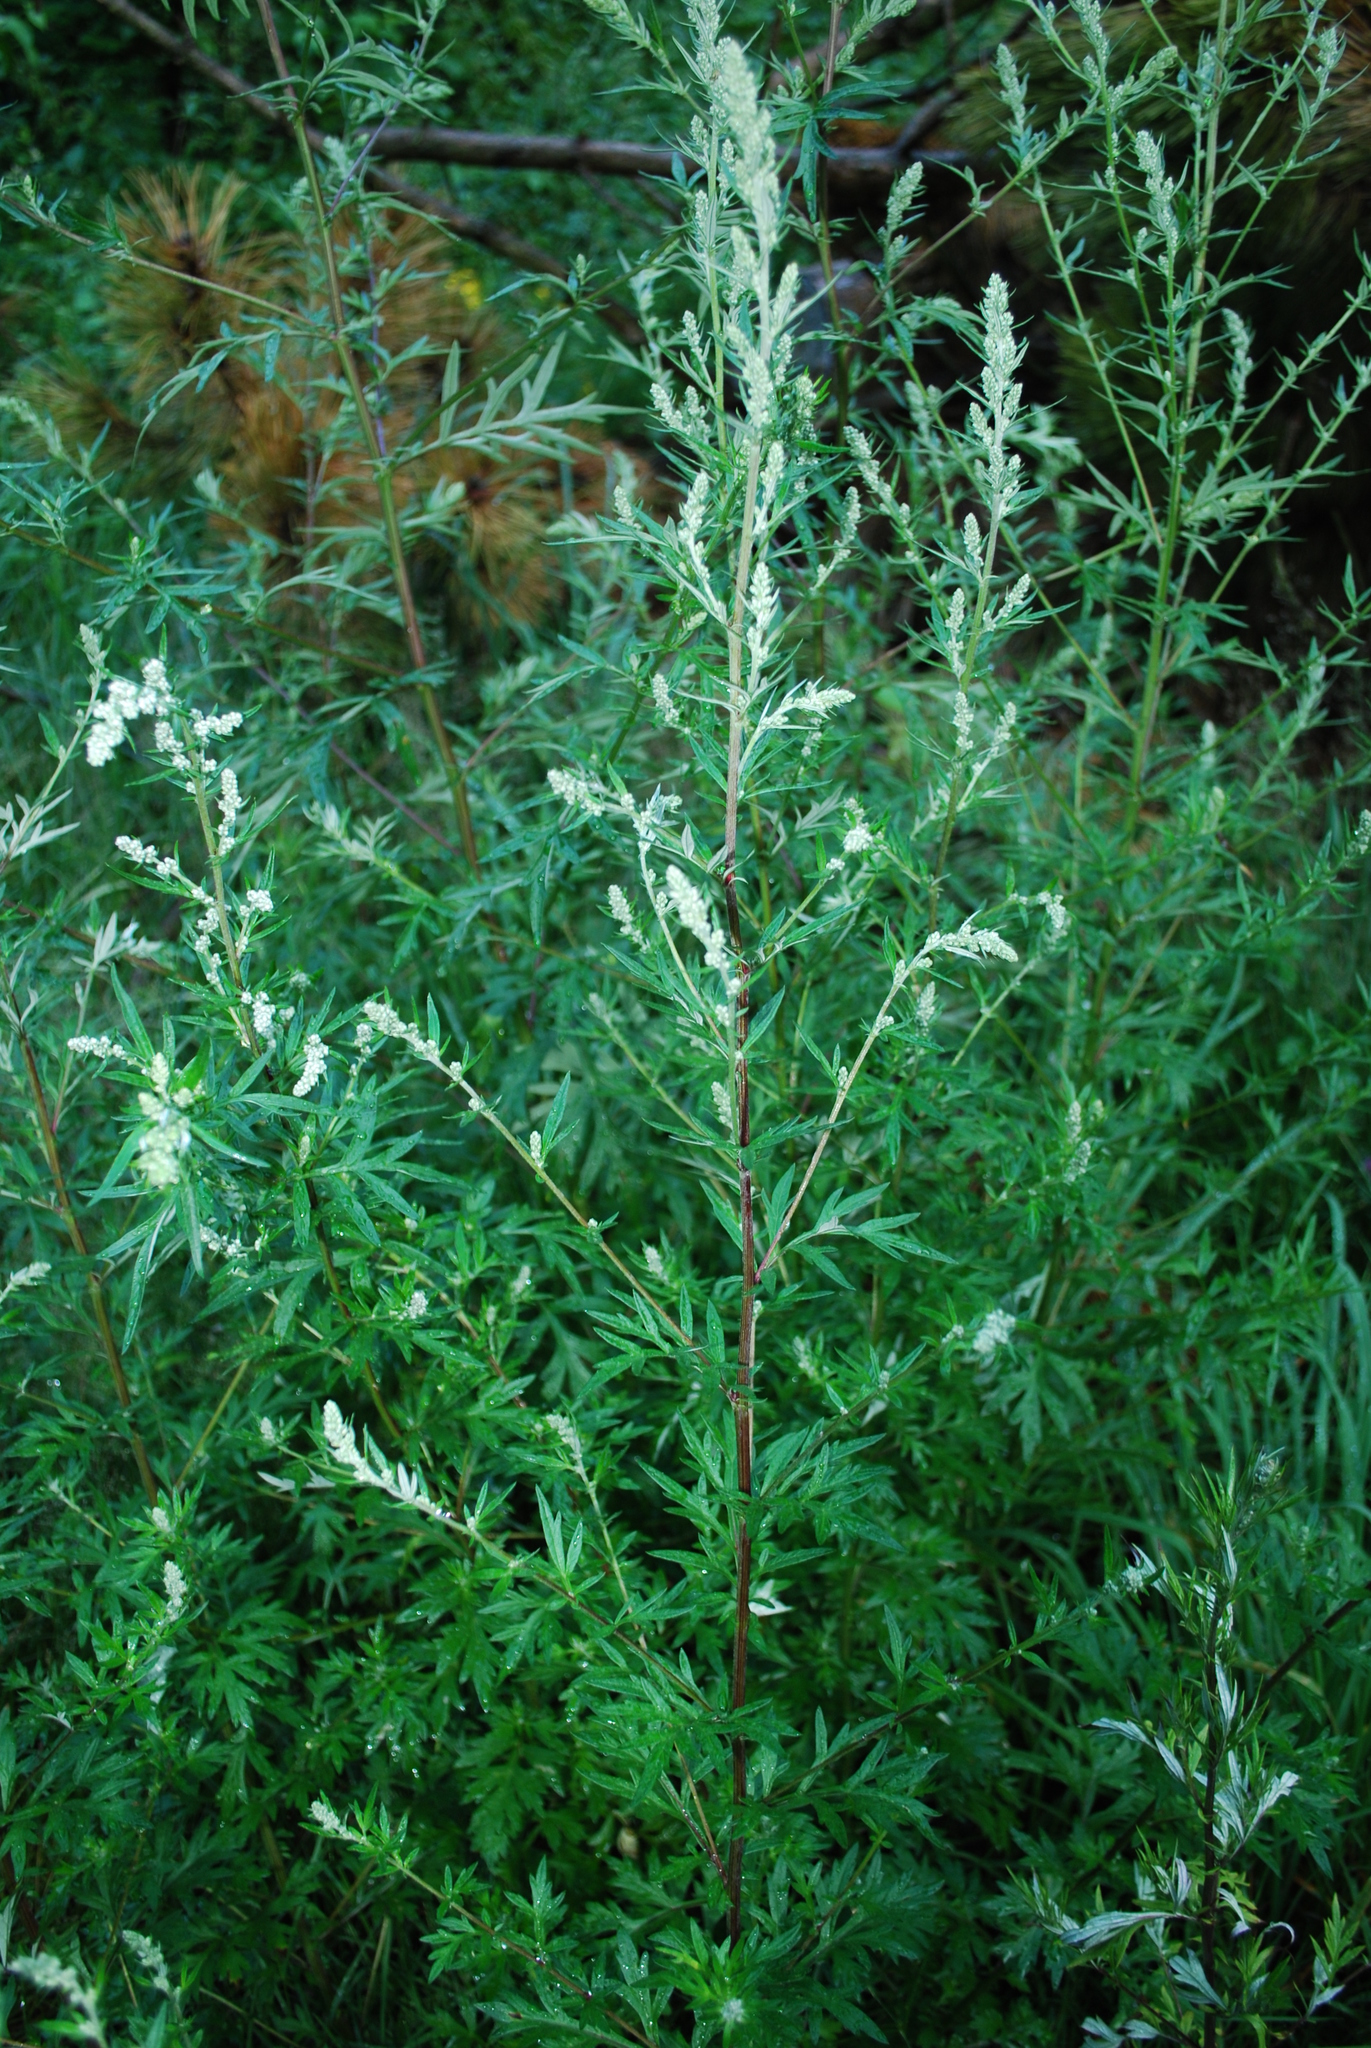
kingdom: Plantae
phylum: Tracheophyta
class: Magnoliopsida
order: Asterales
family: Asteraceae
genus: Artemisia
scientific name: Artemisia vulgaris
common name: Mugwort
